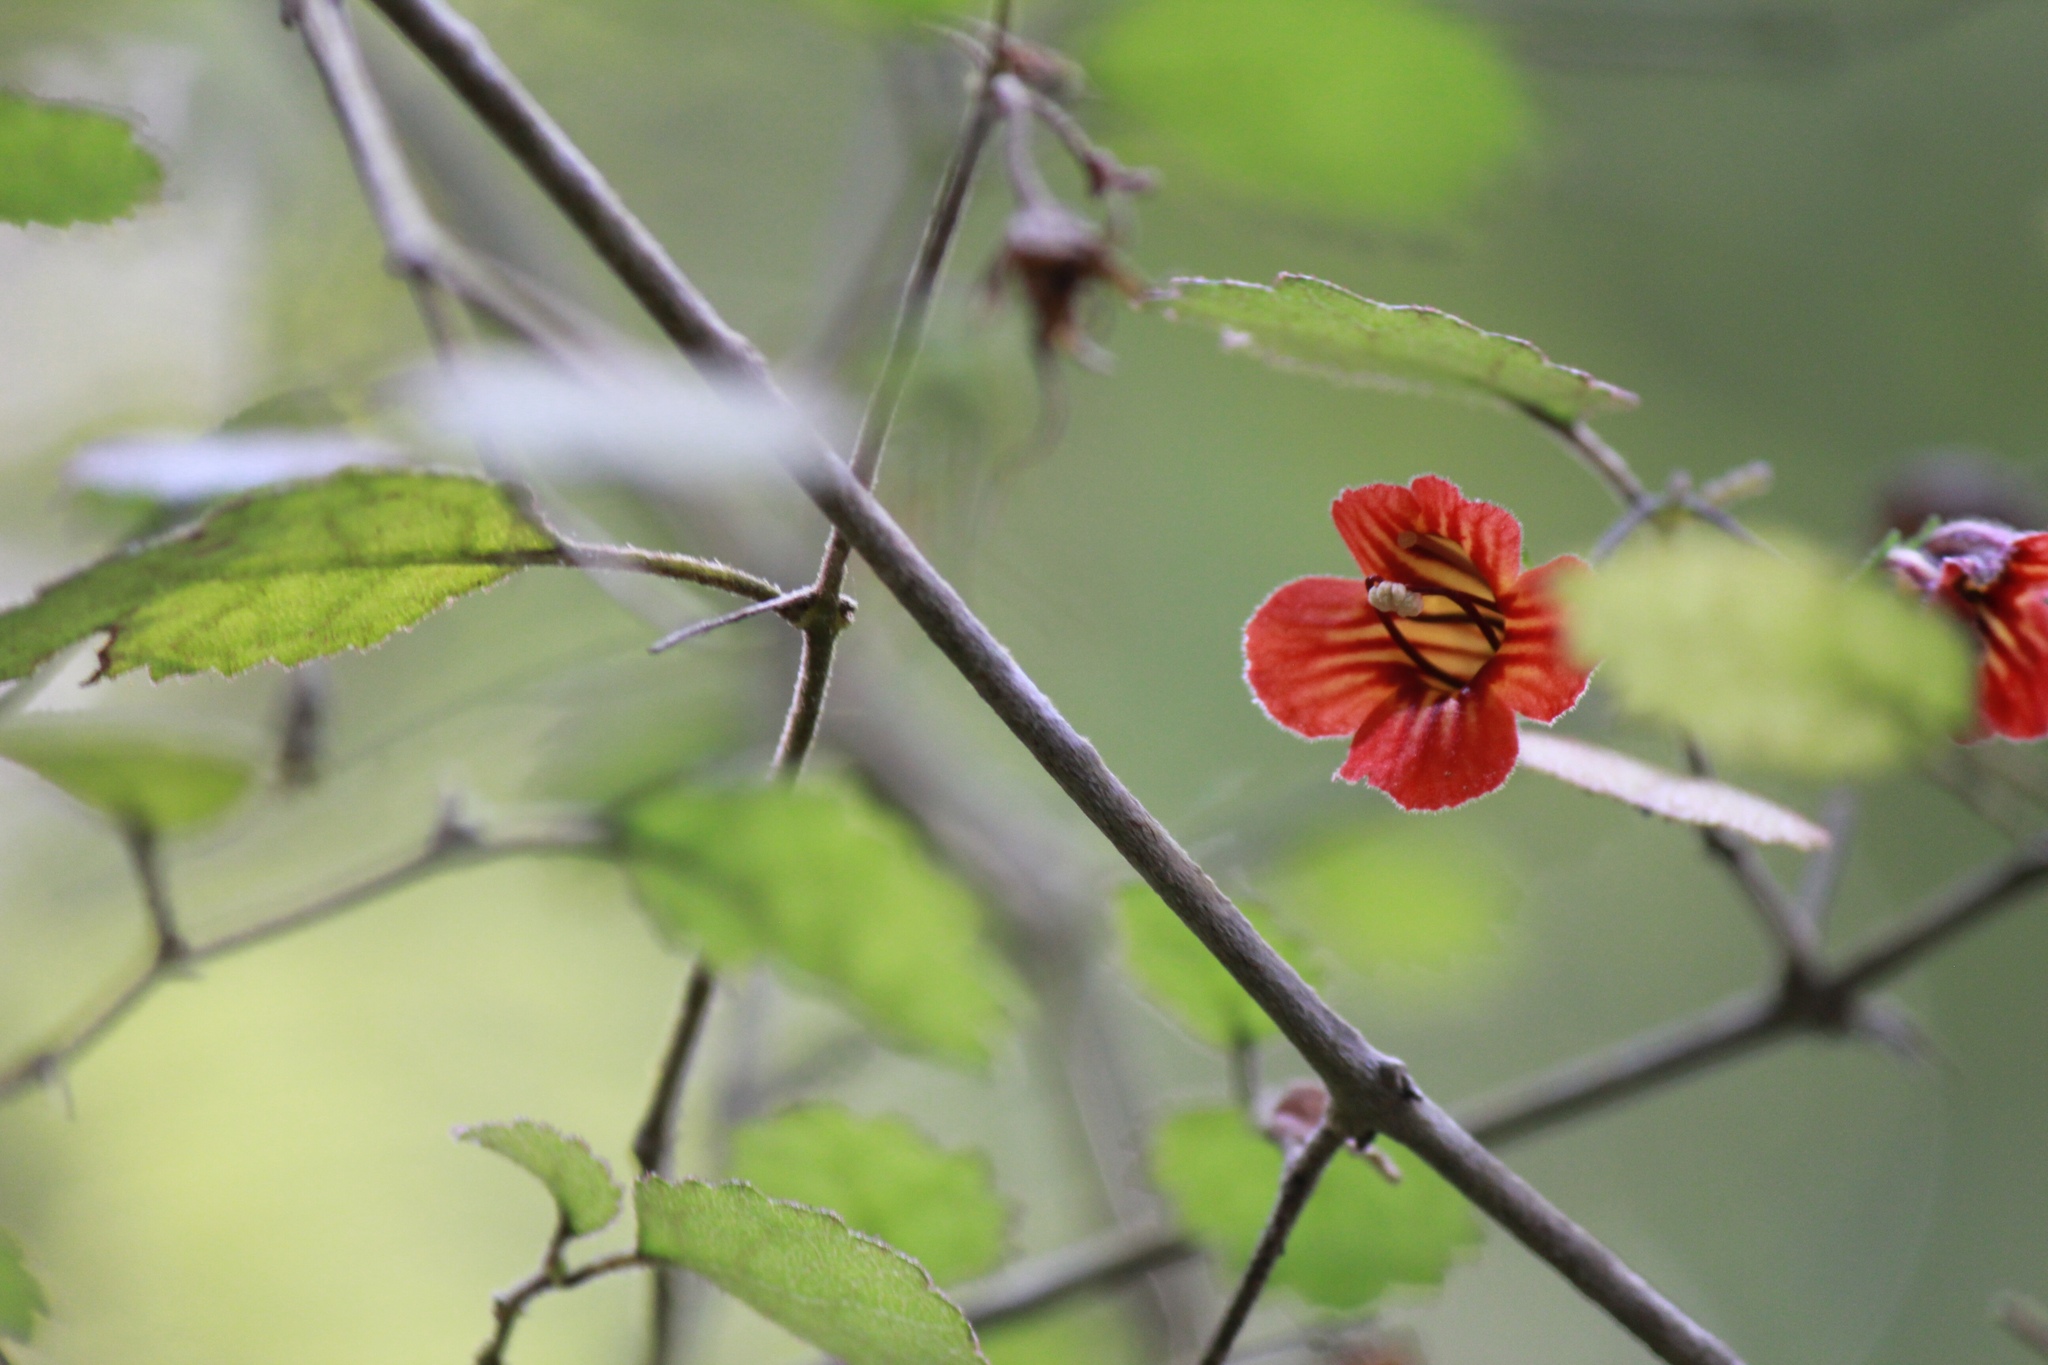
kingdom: Plantae
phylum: Tracheophyta
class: Magnoliopsida
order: Lamiales
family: Gesneriaceae
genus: Rhabdothamnus
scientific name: Rhabdothamnus solandri
